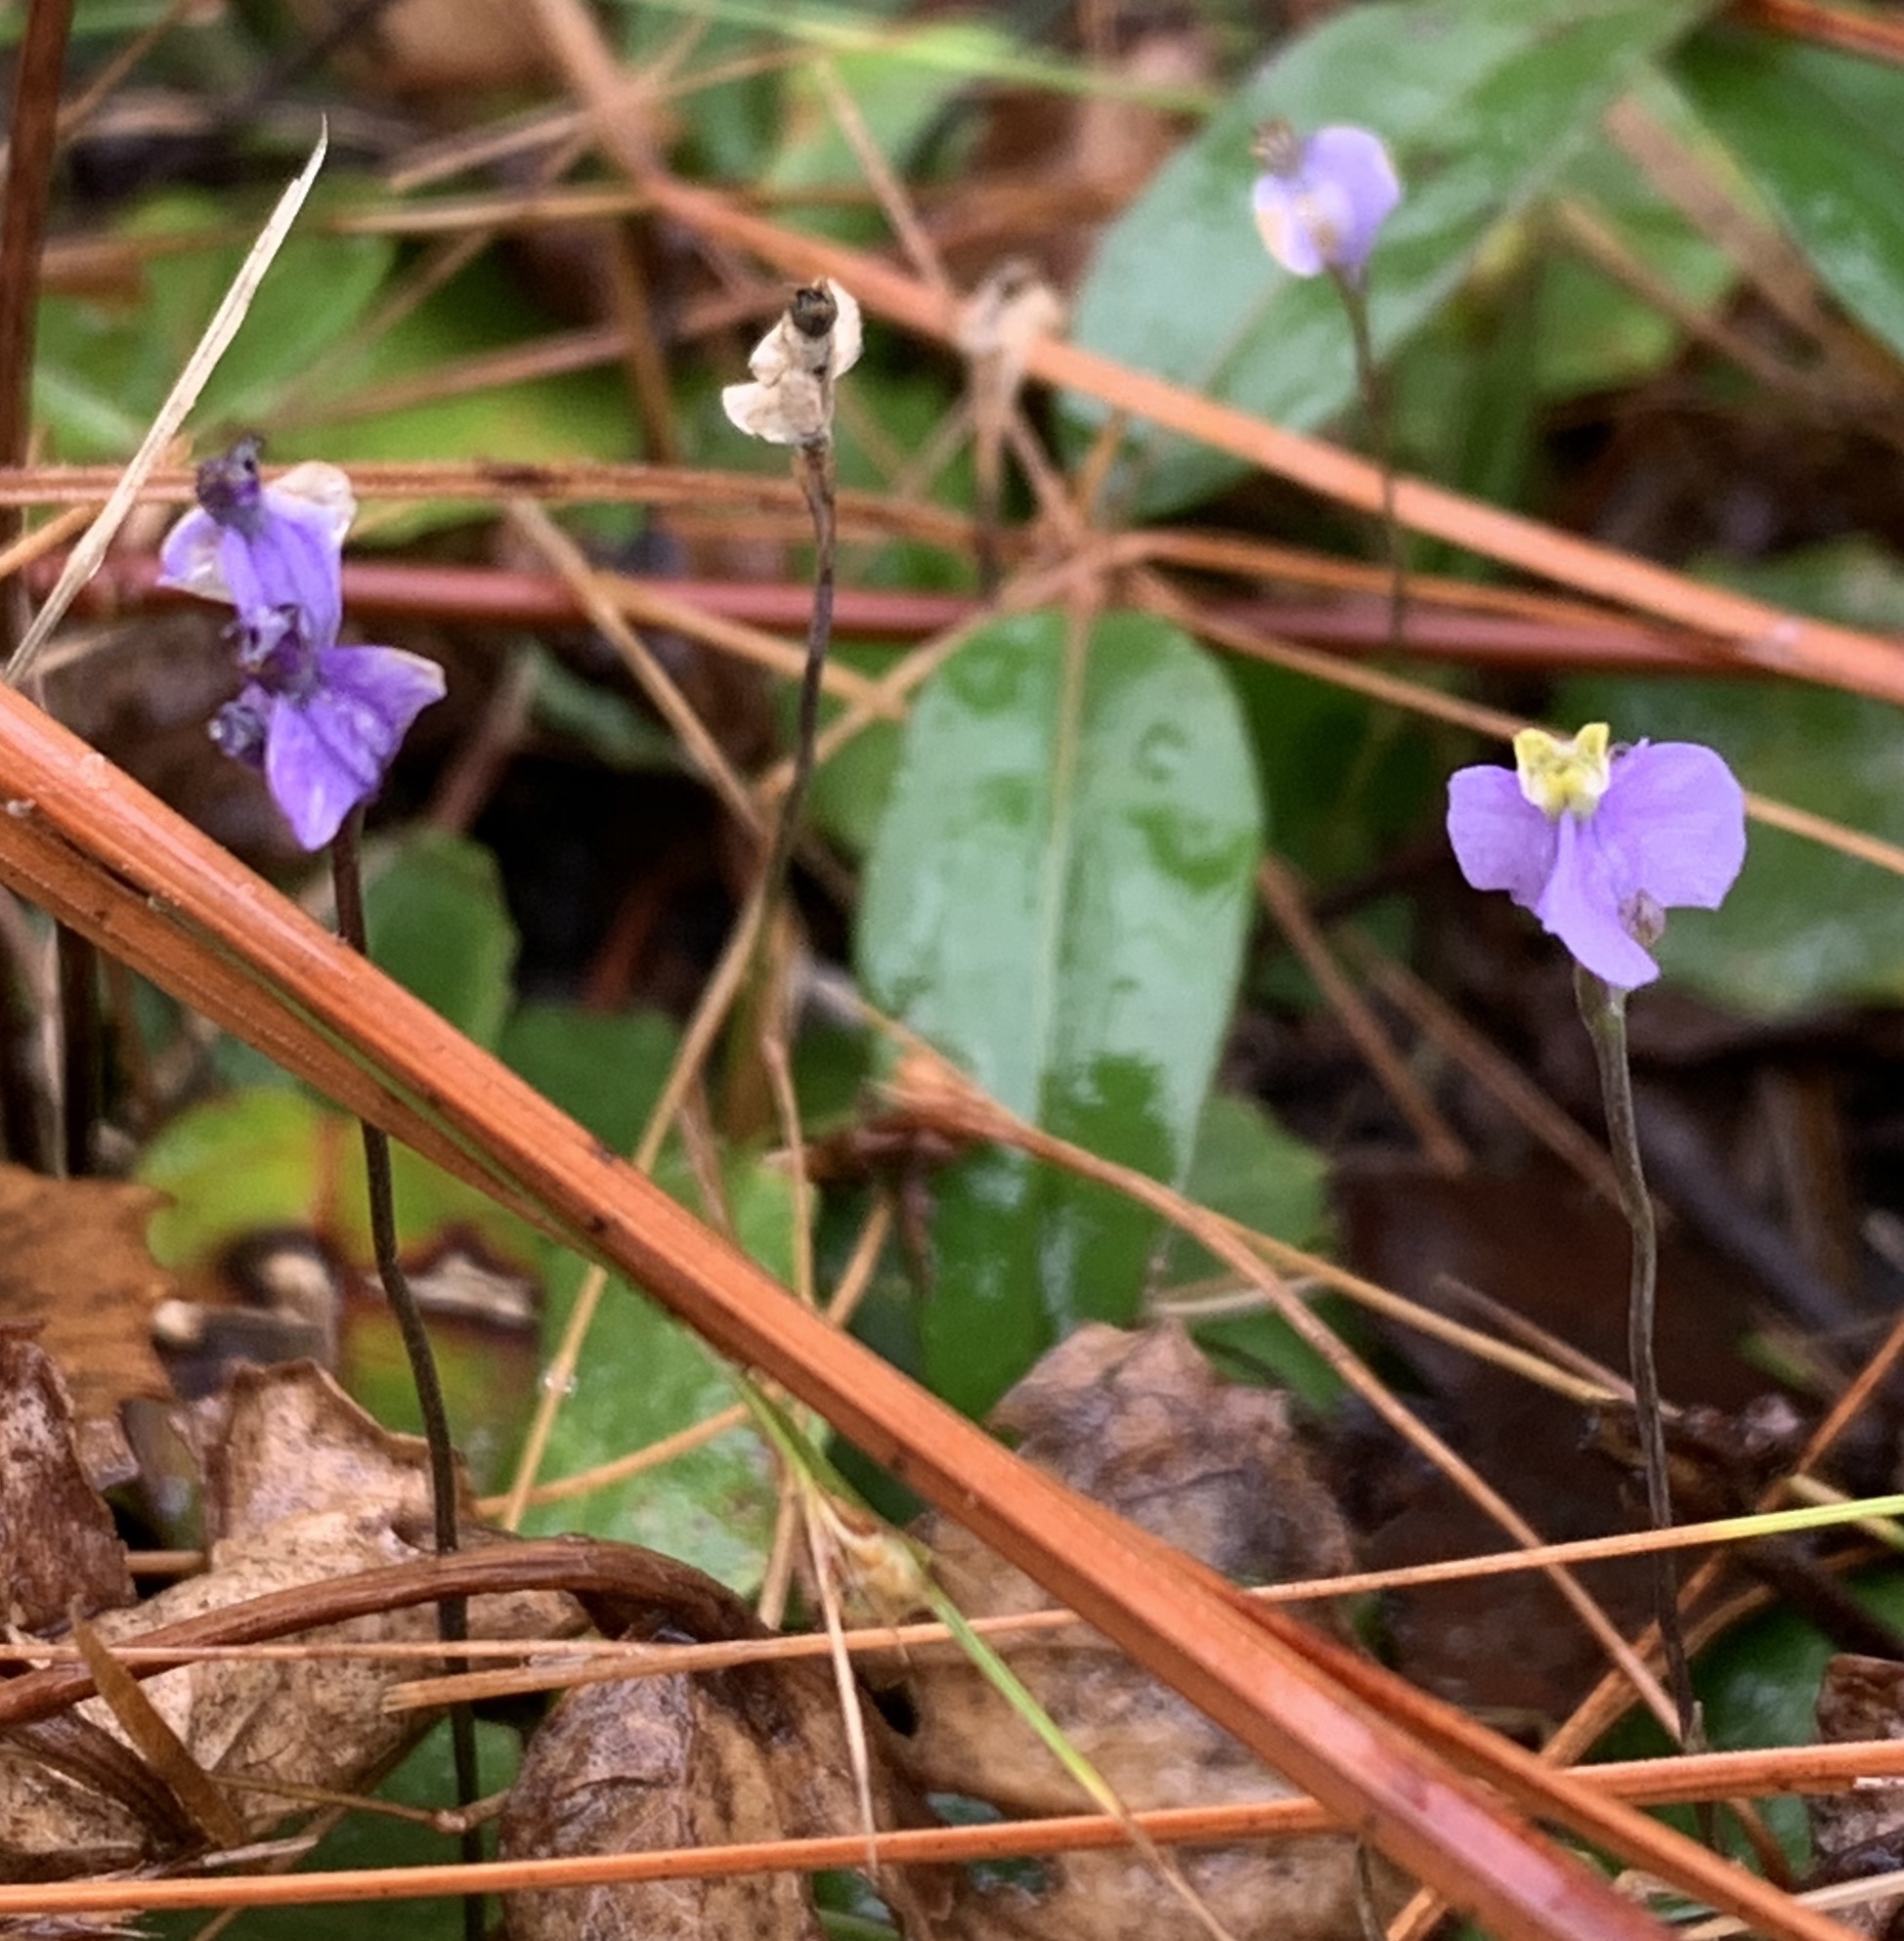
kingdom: Plantae
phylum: Tracheophyta
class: Liliopsida
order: Dioscoreales
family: Burmanniaceae
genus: Burmannia
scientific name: Burmannia biflora
